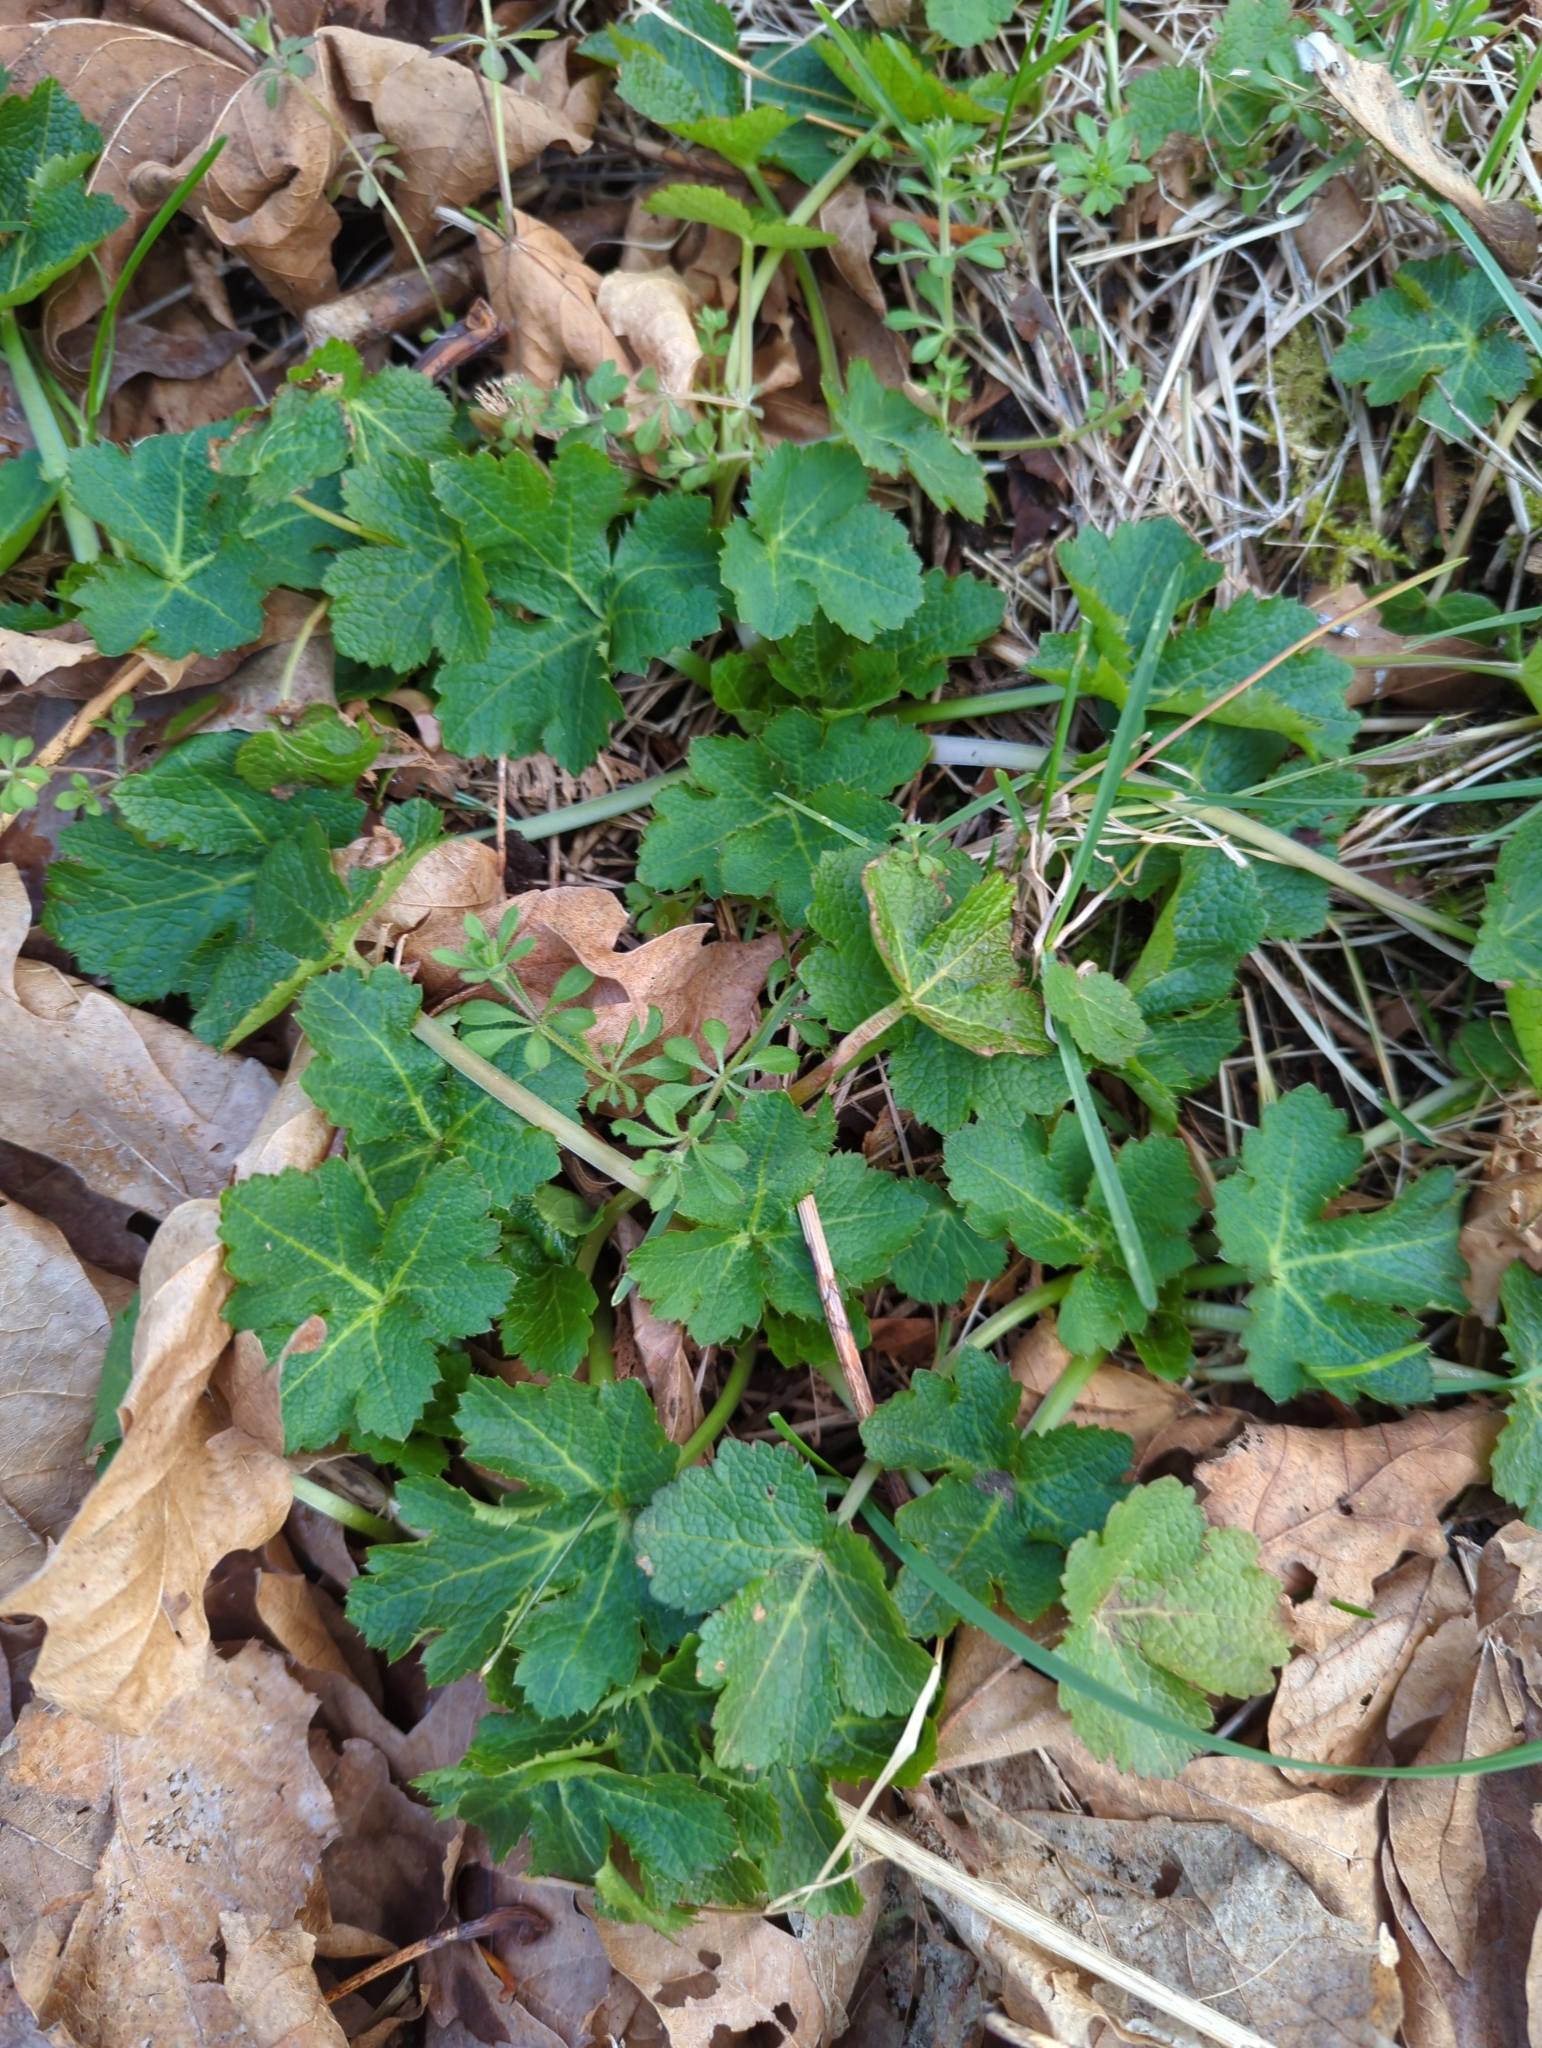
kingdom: Plantae
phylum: Tracheophyta
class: Magnoliopsida
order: Apiales
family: Apiaceae
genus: Sanicula
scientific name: Sanicula crassicaulis
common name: Western snakeroot
